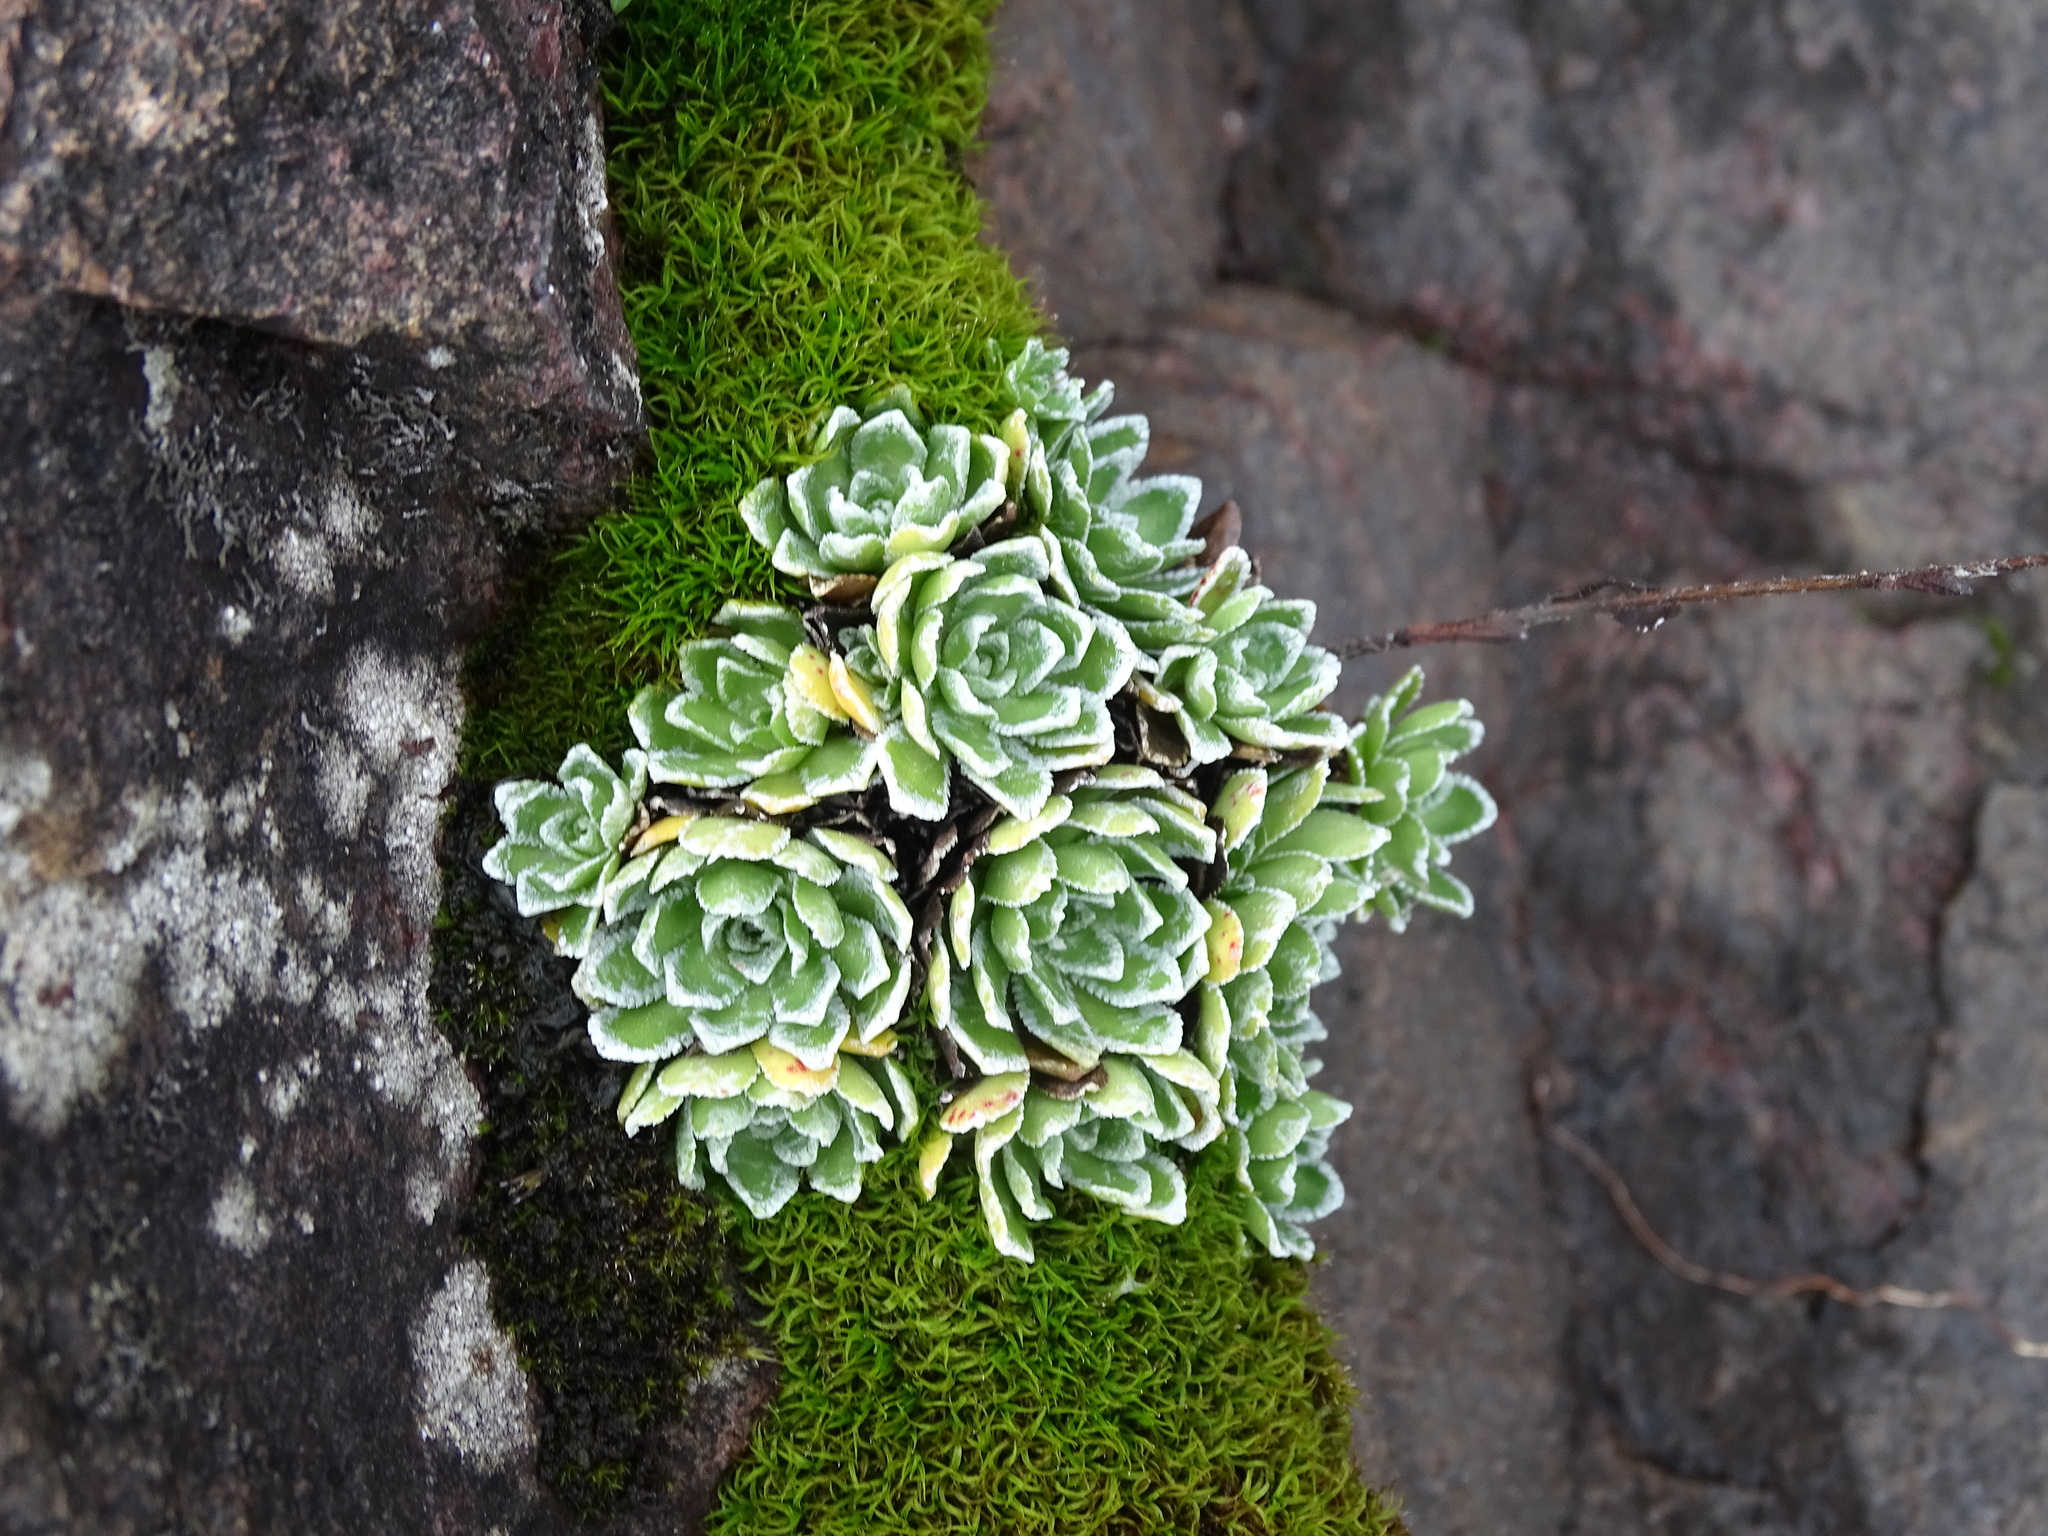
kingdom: Plantae
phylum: Tracheophyta
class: Magnoliopsida
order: Saxifragales
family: Saxifragaceae
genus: Saxifraga
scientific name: Saxifraga paniculata
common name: Livelong saxifrage
